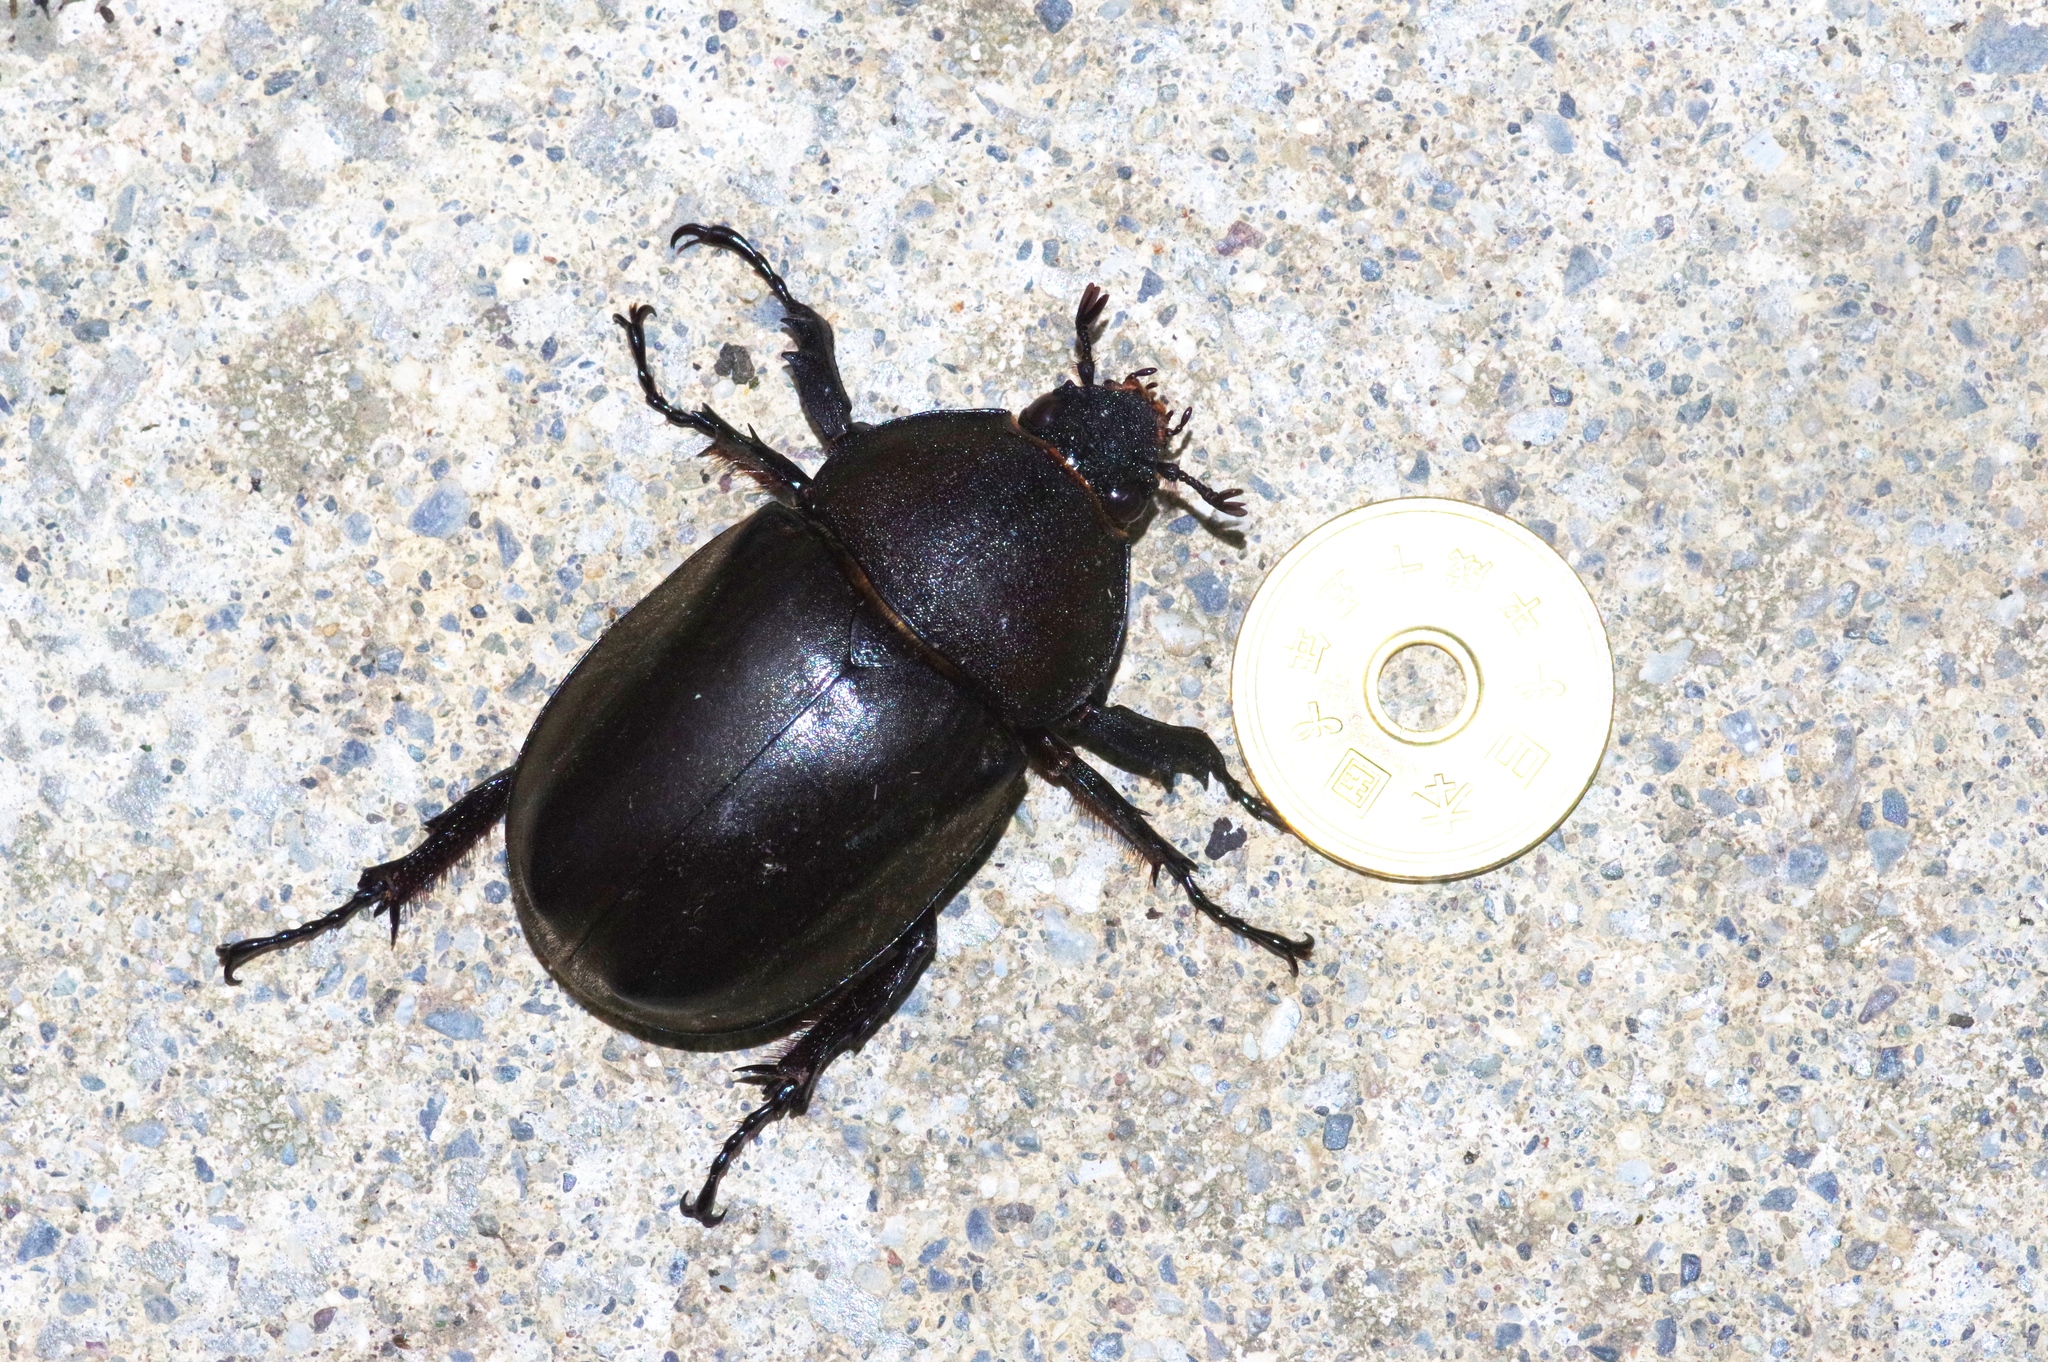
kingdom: Animalia
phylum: Arthropoda
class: Insecta
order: Coleoptera
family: Scarabaeidae
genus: Trypoxylus
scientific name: Trypoxylus dichotomus
